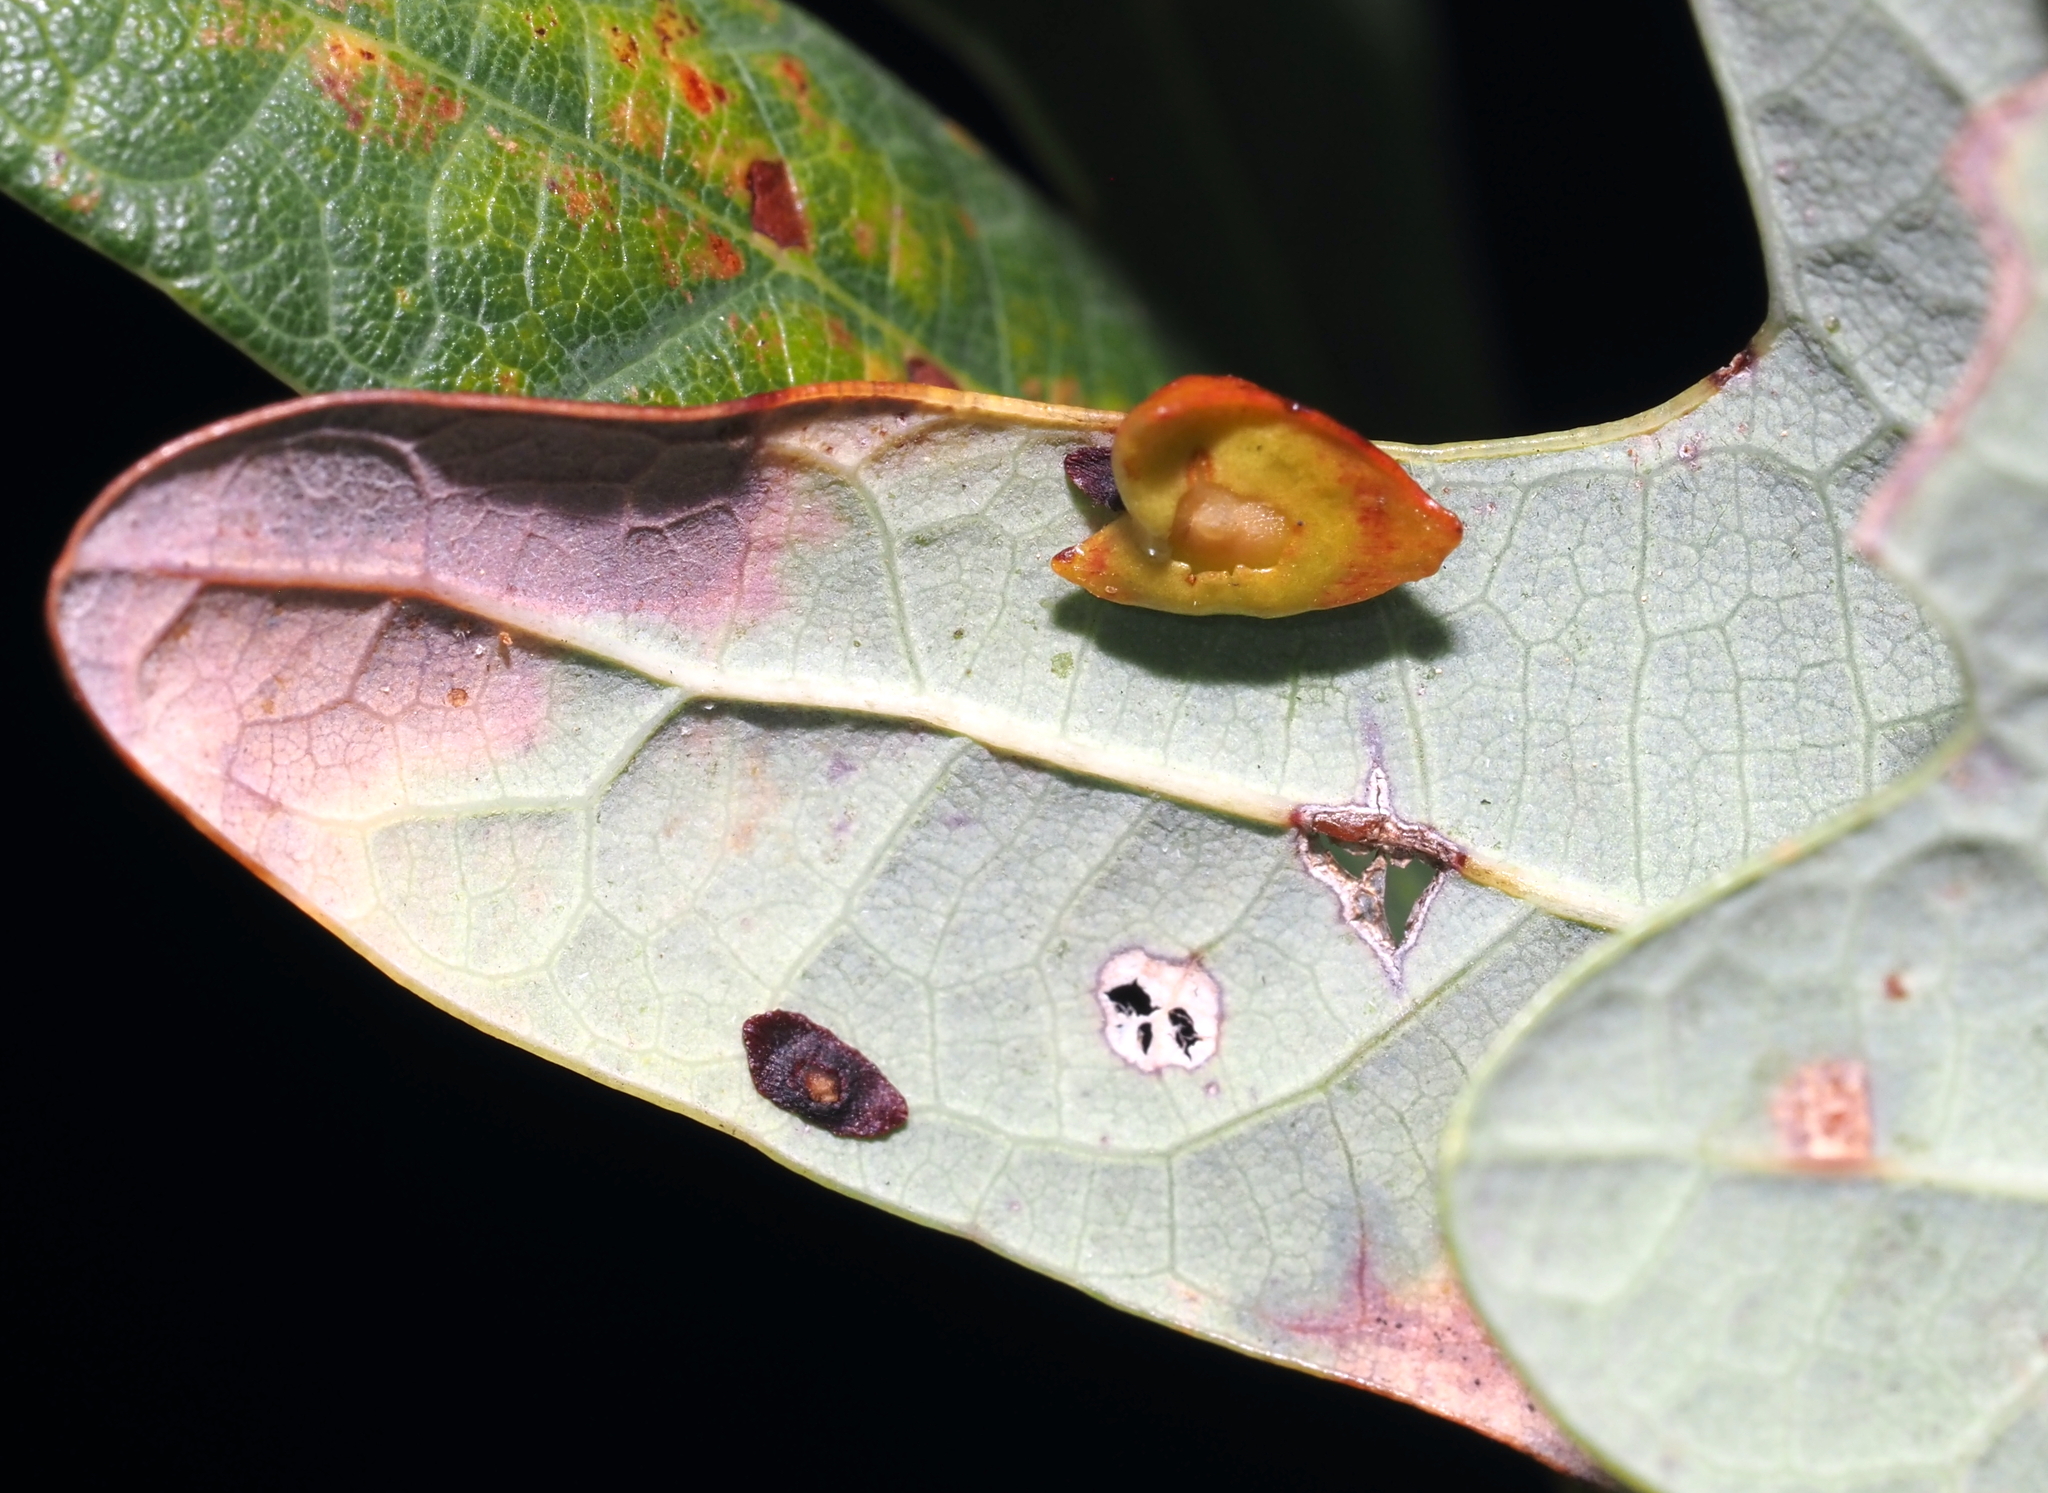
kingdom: Animalia
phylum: Arthropoda
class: Insecta
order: Hymenoptera
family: Cynipidae
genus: Phylloteras
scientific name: Phylloteras
